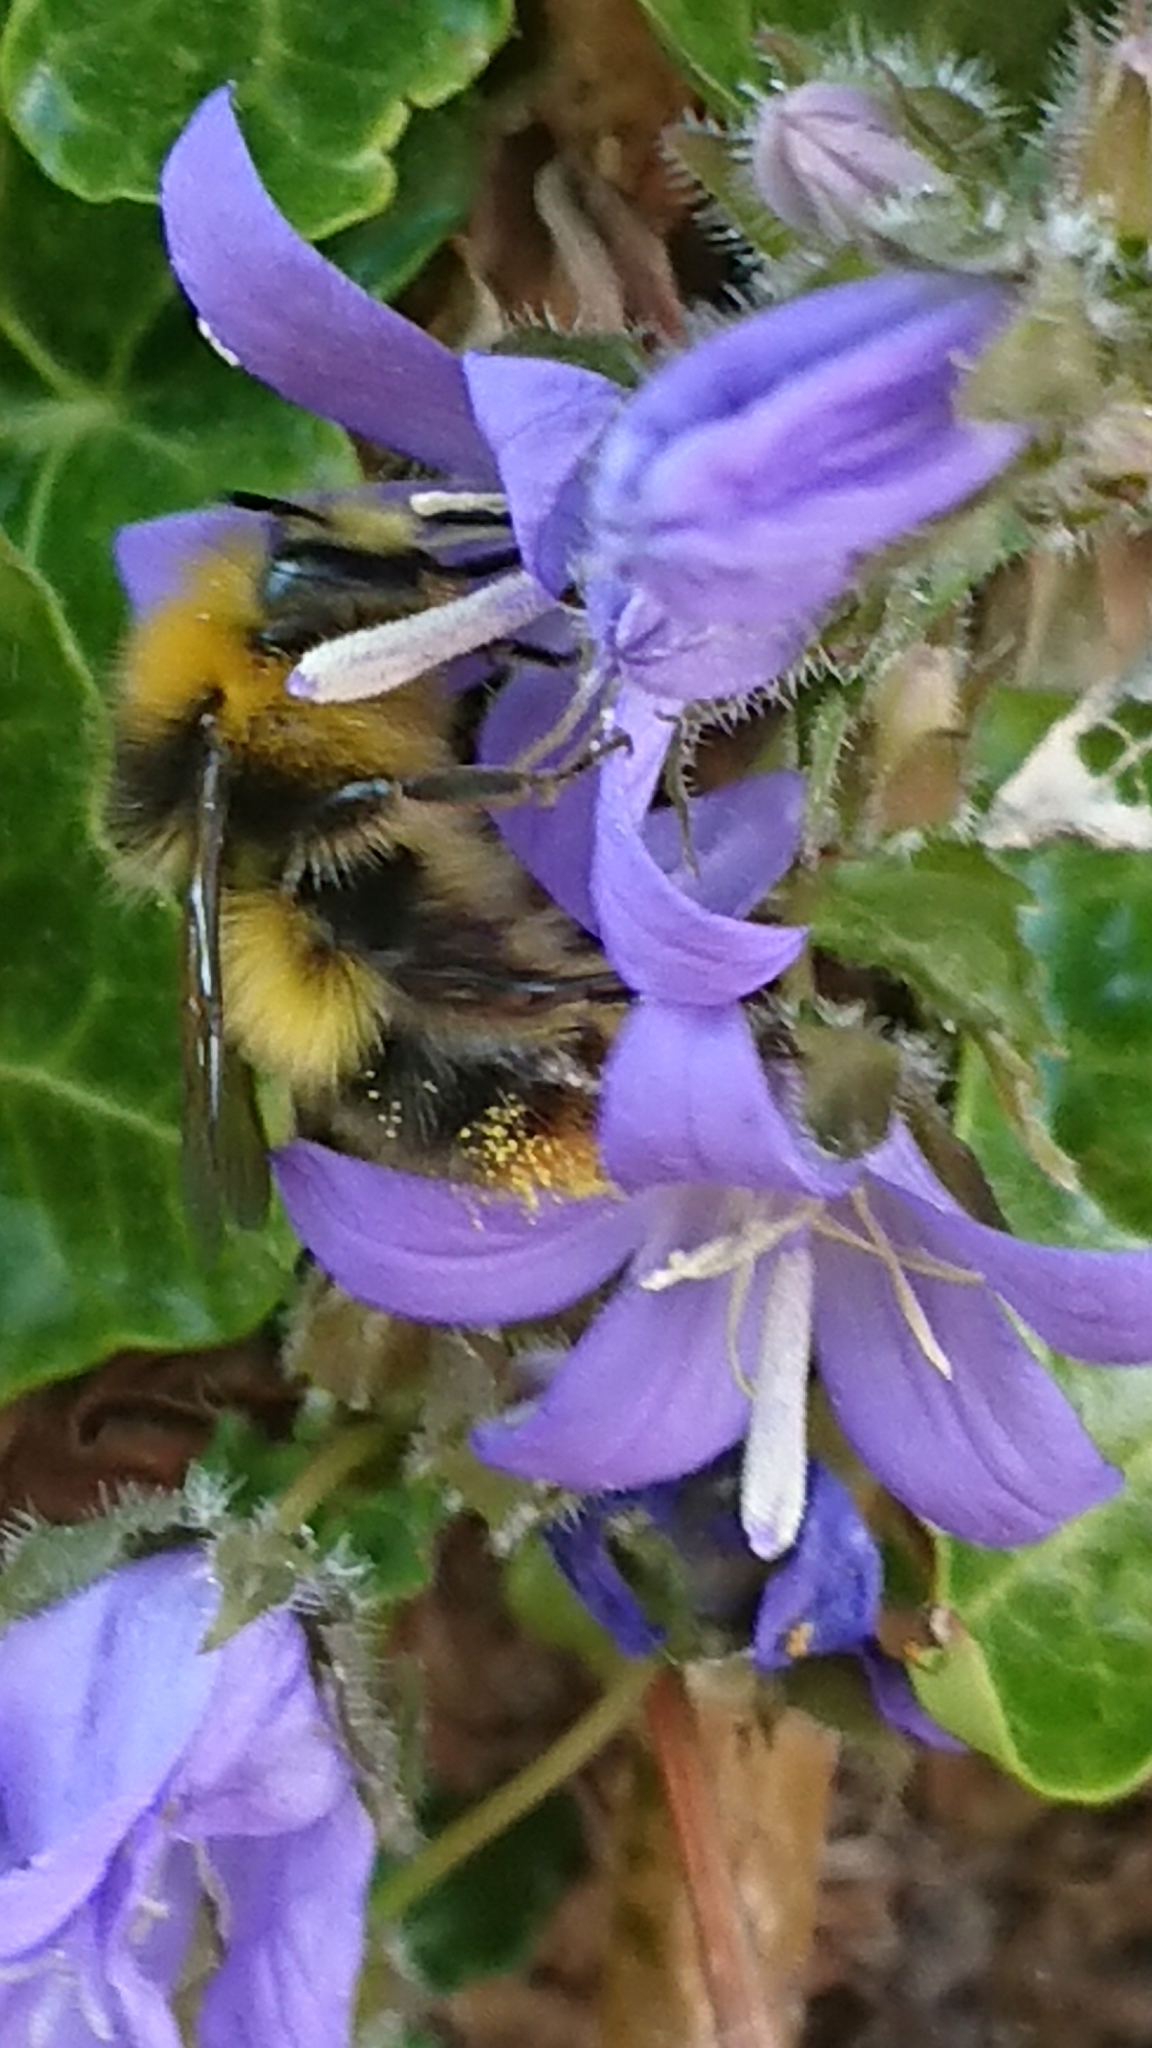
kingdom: Animalia
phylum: Arthropoda
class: Insecta
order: Hymenoptera
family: Apidae
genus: Bombus
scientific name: Bombus pratorum
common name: Early humble-bee
